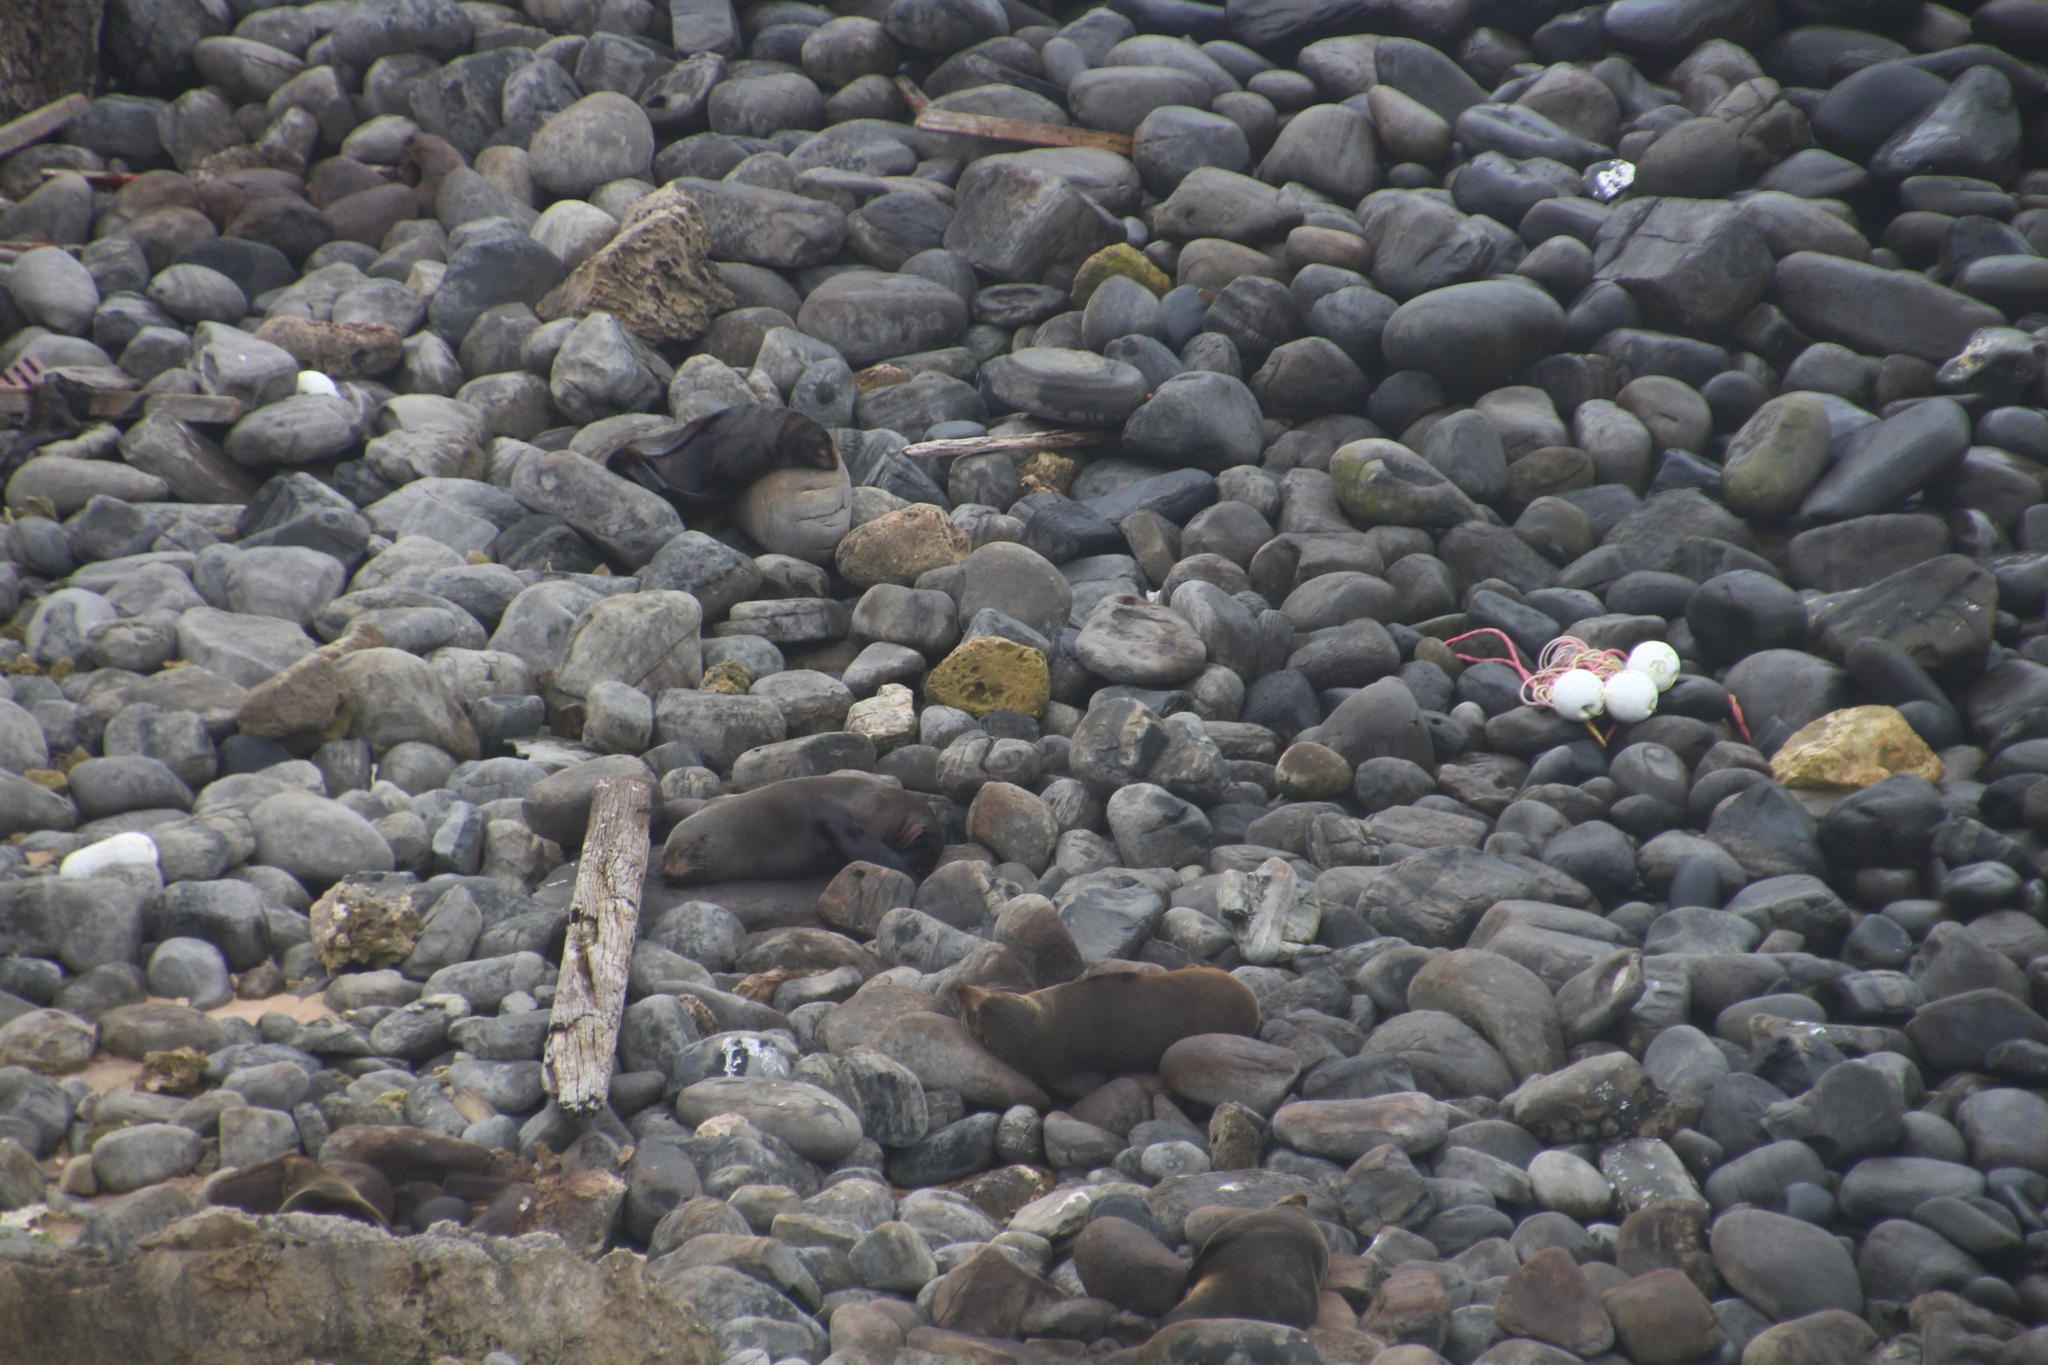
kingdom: Animalia
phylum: Chordata
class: Mammalia
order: Carnivora
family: Otariidae
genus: Arctocephalus
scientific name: Arctocephalus forsteri
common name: New zealand fur seal
